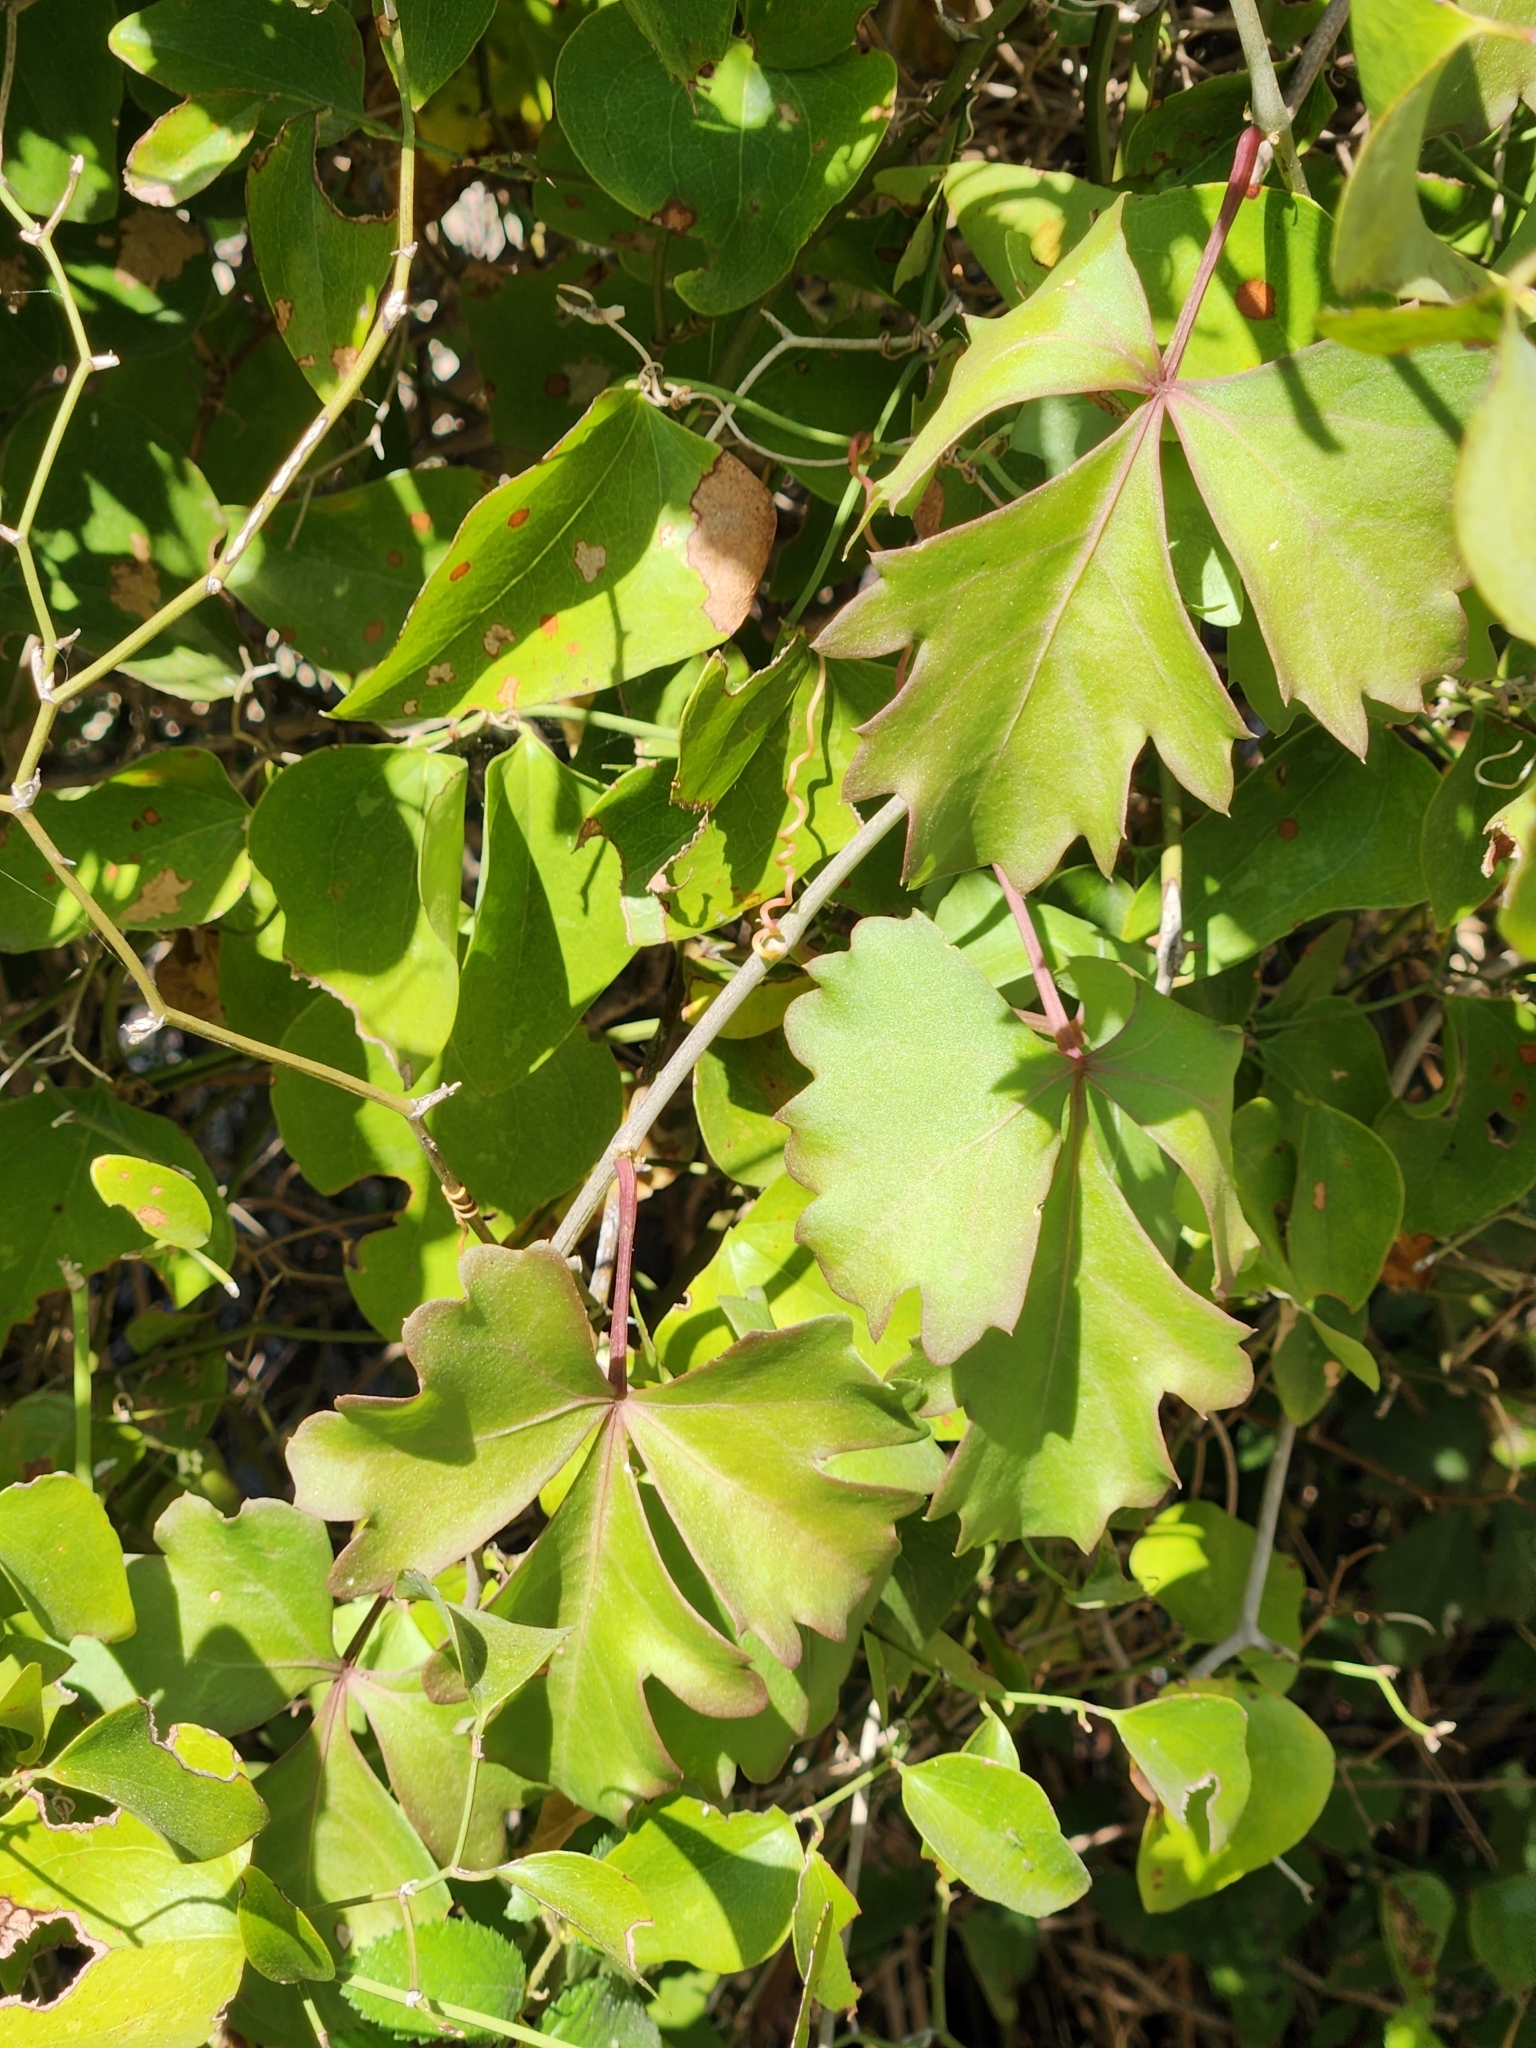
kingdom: Plantae
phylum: Tracheophyta
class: Magnoliopsida
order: Vitales
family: Vitaceae
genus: Cissus
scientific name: Cissus trifoliata
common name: Vine-sorrel
